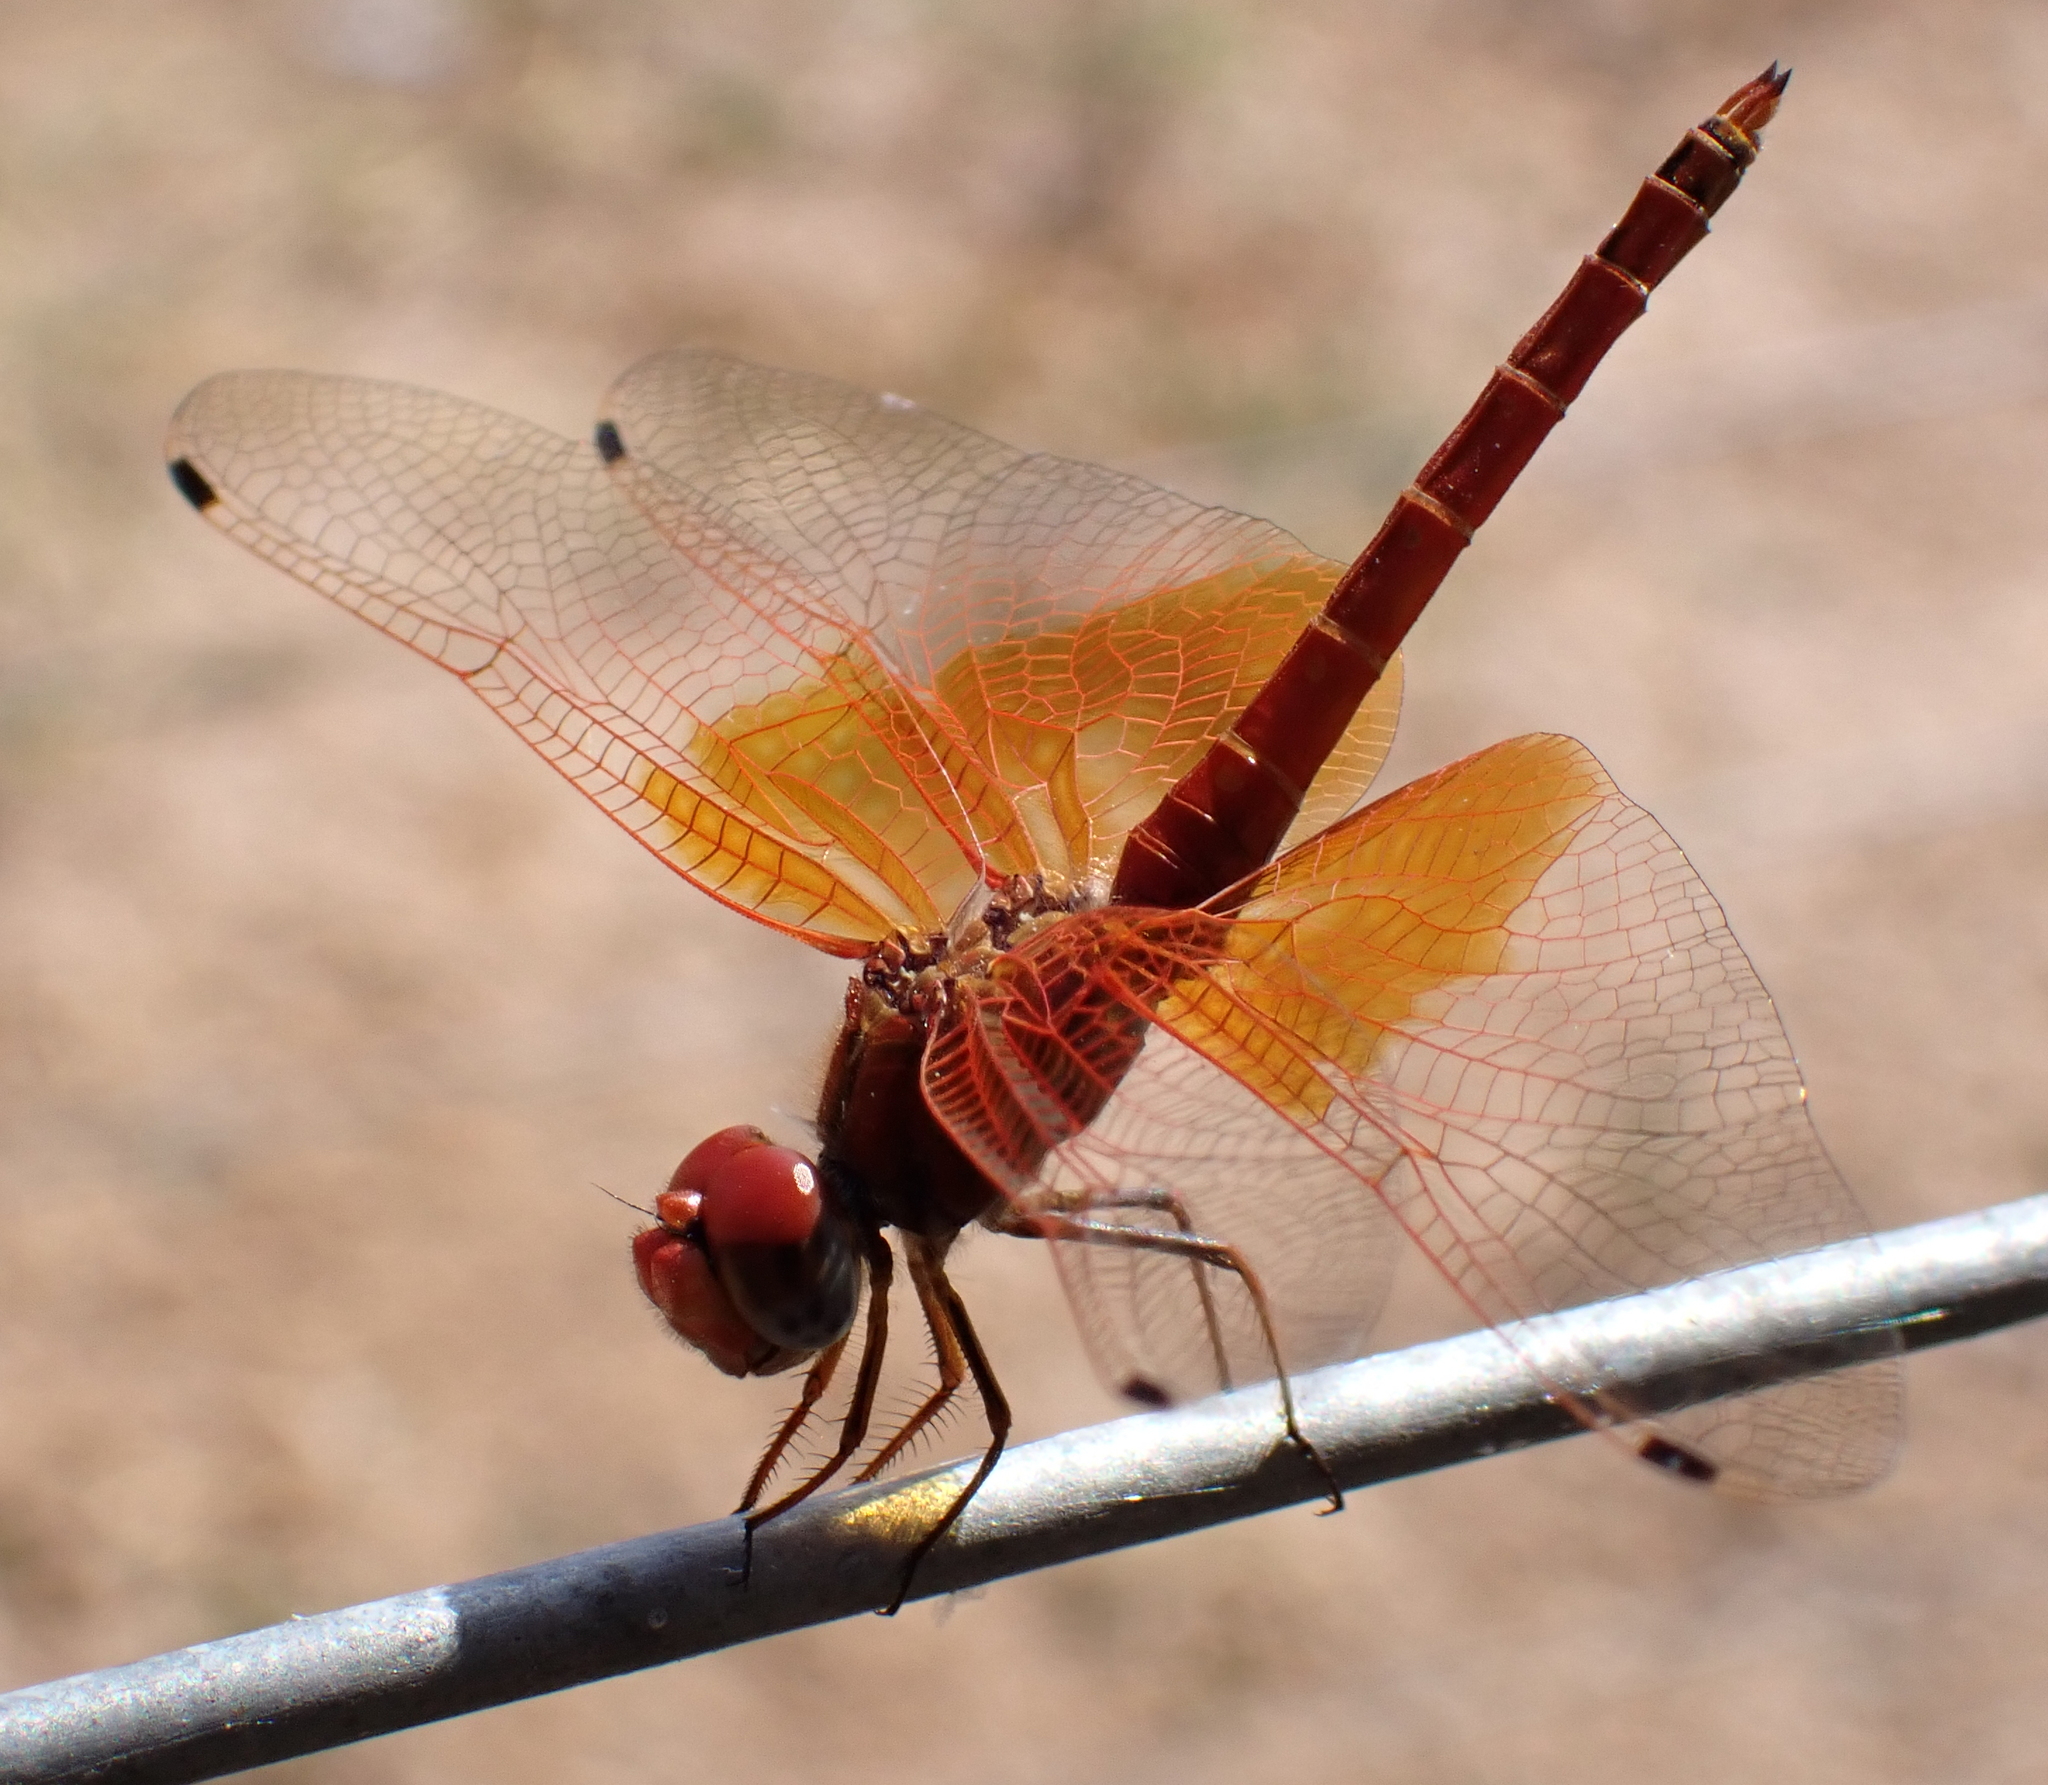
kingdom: Animalia
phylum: Arthropoda
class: Insecta
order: Odonata
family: Libellulidae
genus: Trithemis
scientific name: Trithemis kirbyi
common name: Kirby's dropwing
